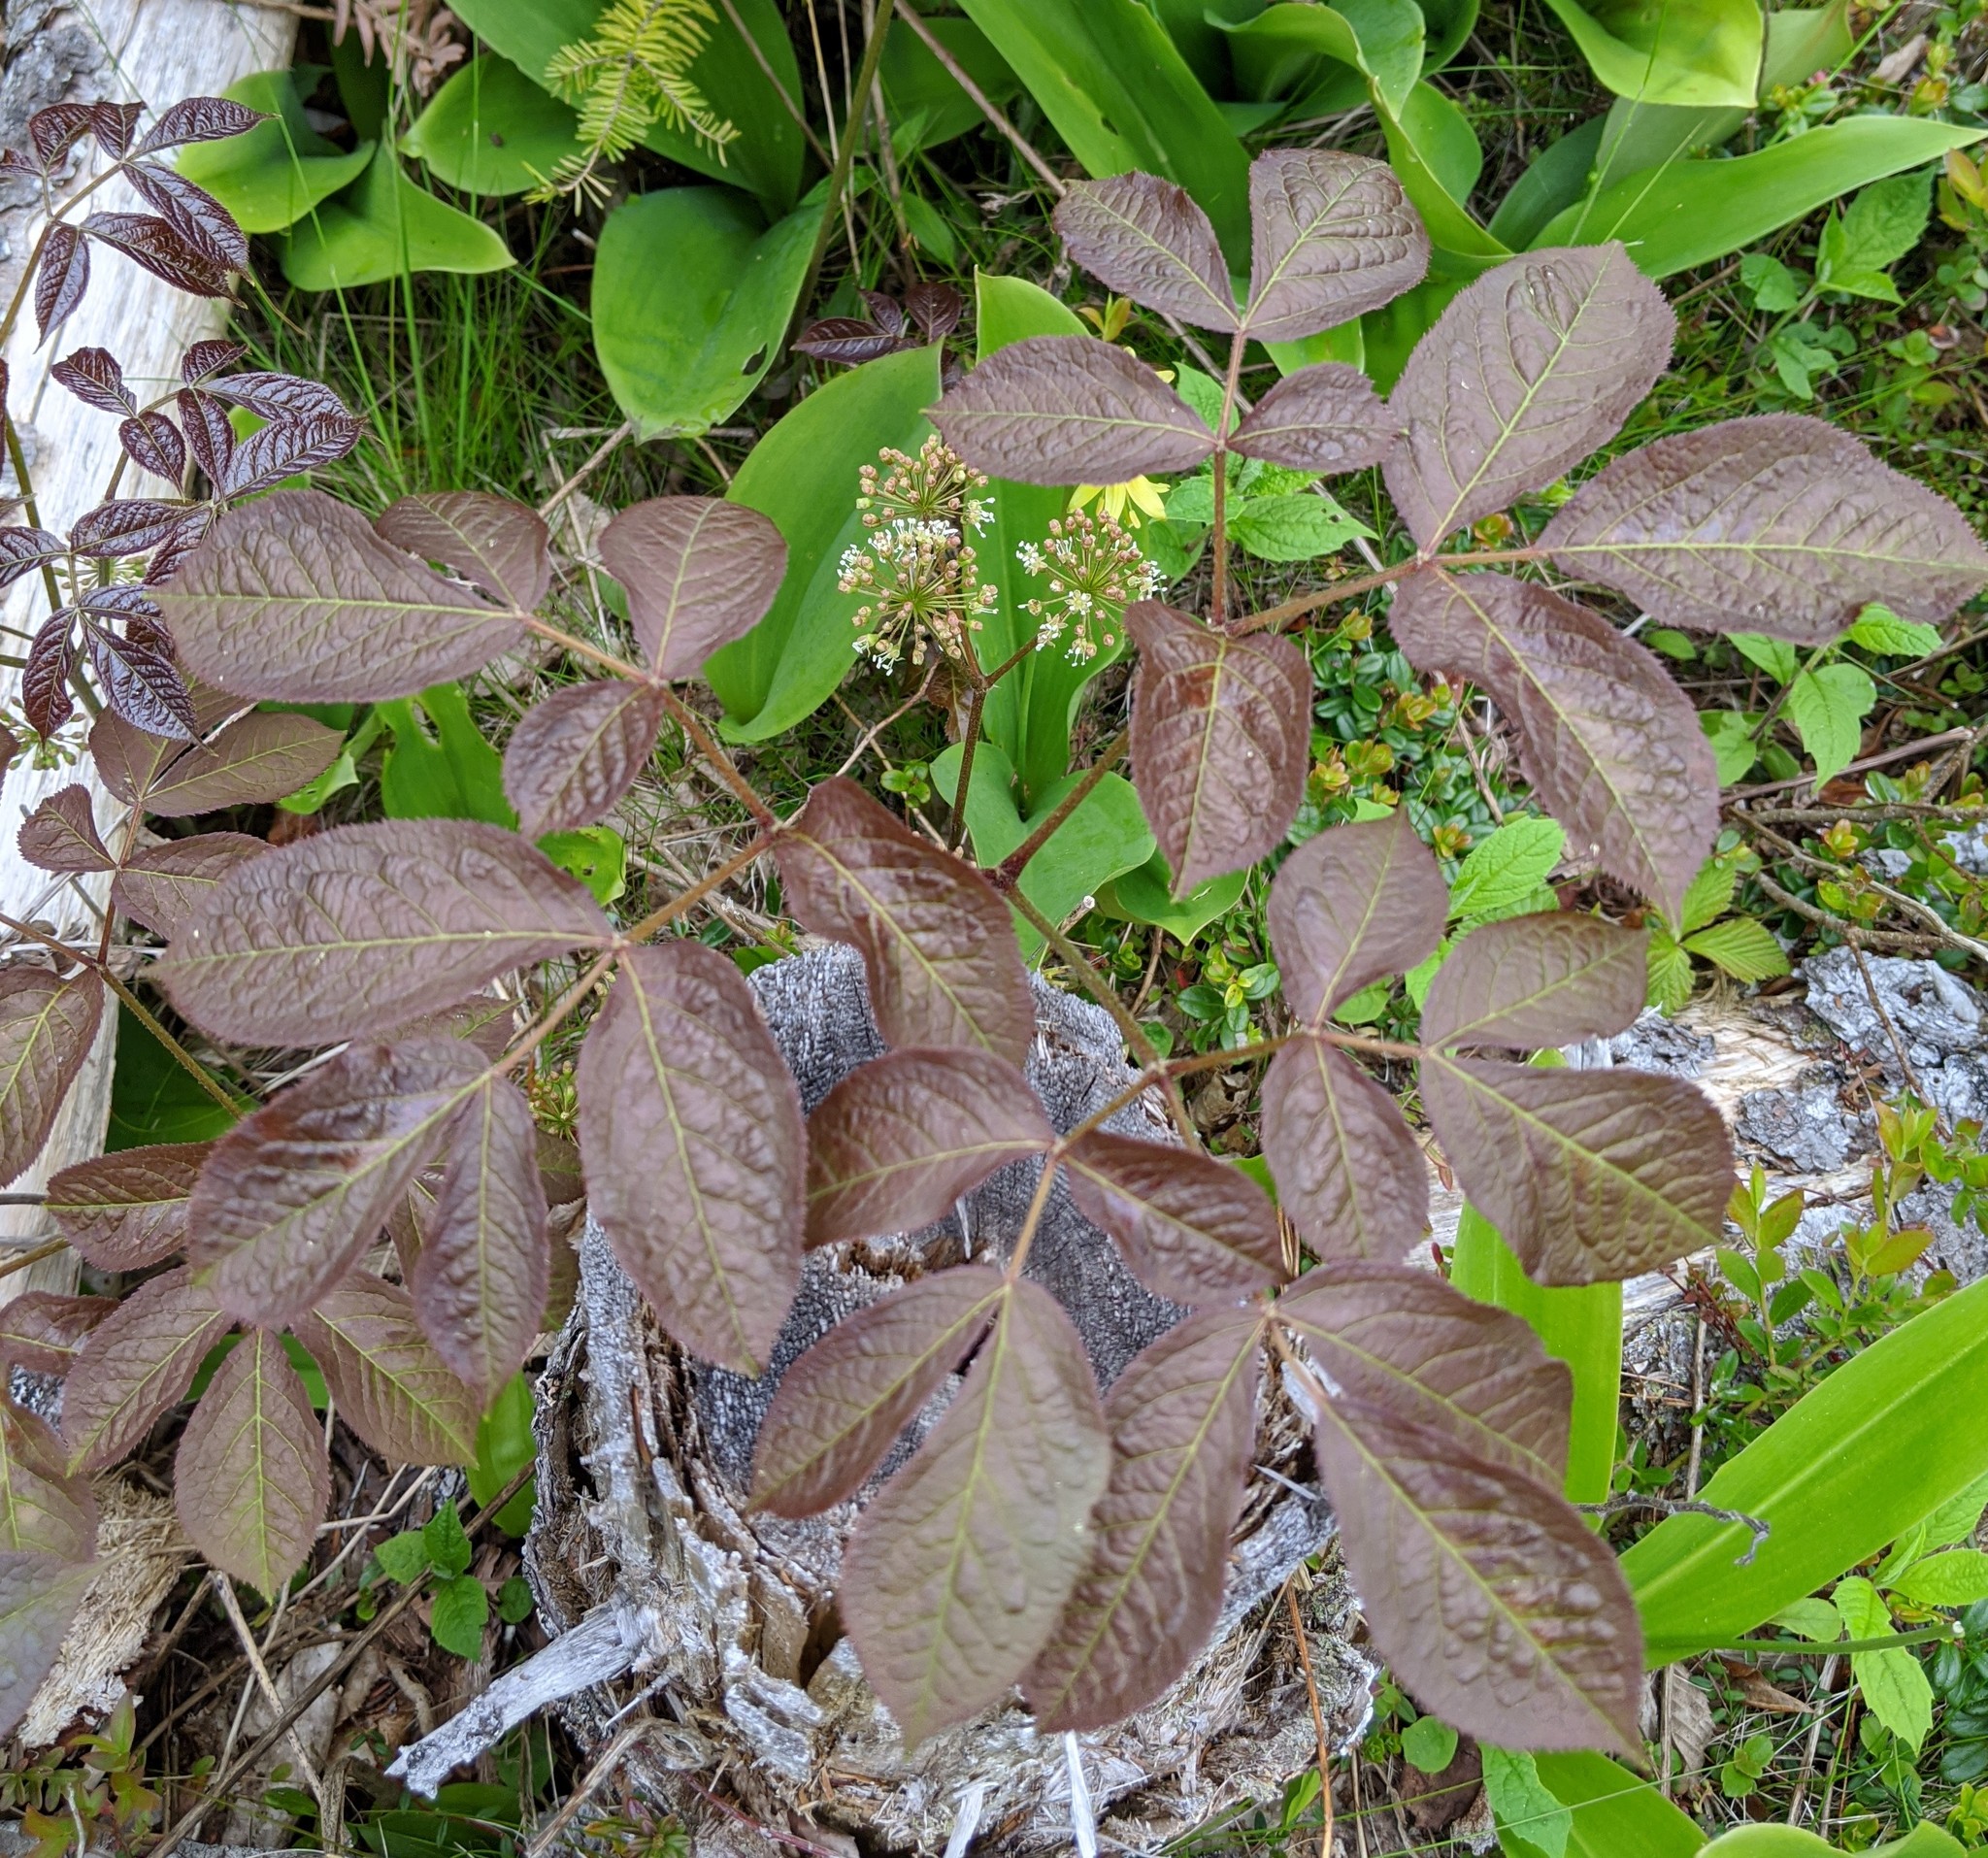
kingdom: Plantae
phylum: Tracheophyta
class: Magnoliopsida
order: Apiales
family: Araliaceae
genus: Aralia
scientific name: Aralia nudicaulis
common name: Wild sarsaparilla
